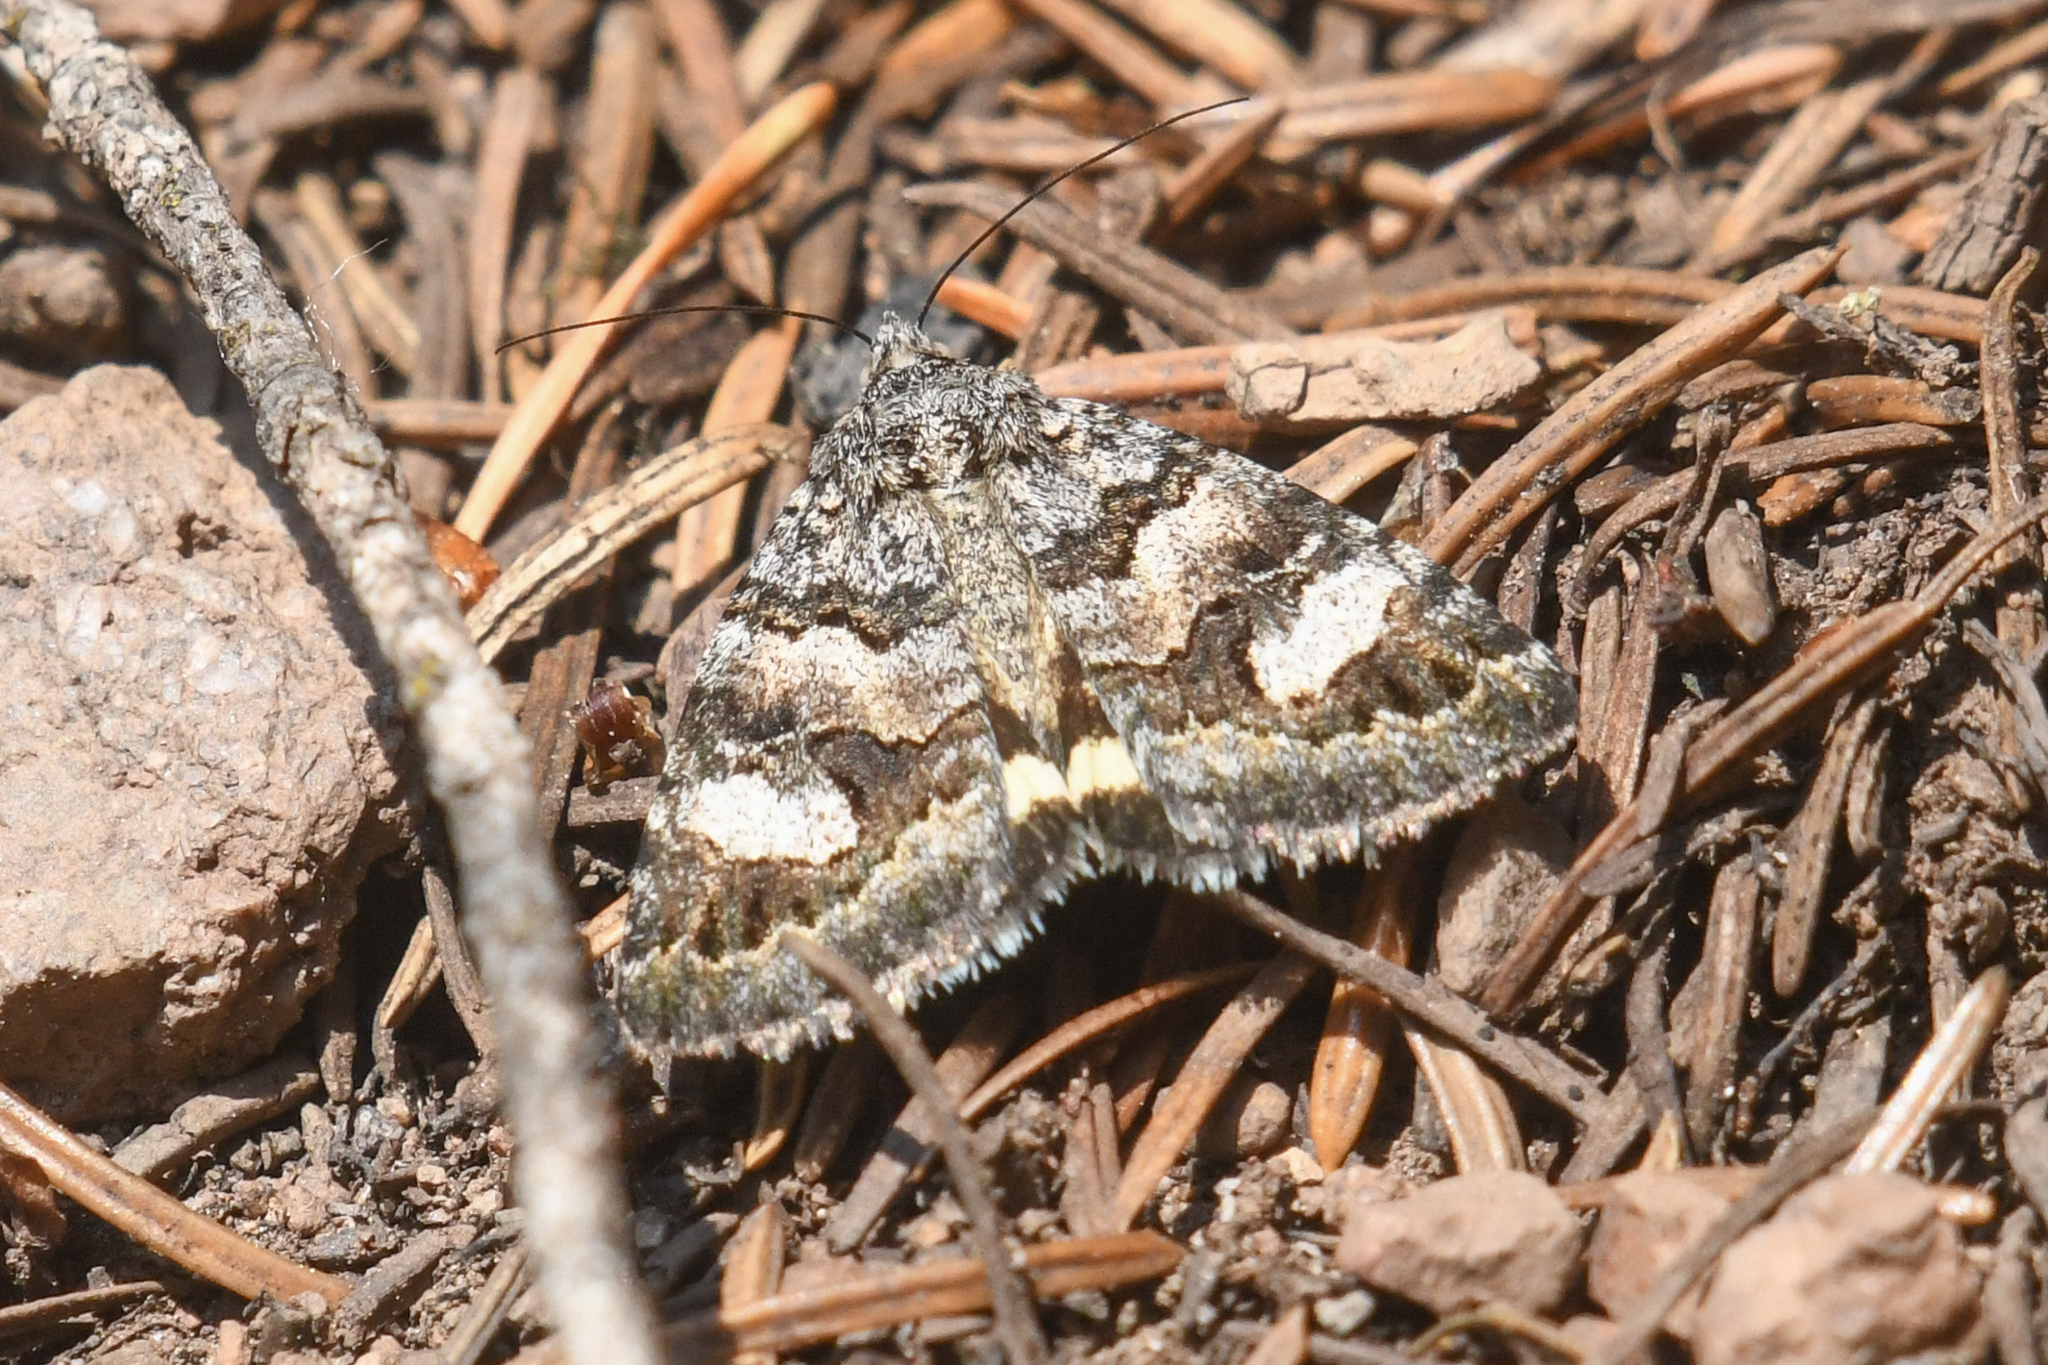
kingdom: Animalia
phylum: Arthropoda
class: Insecta
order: Lepidoptera
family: Erebidae
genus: Drasteria
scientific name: Drasteria hudsonica
